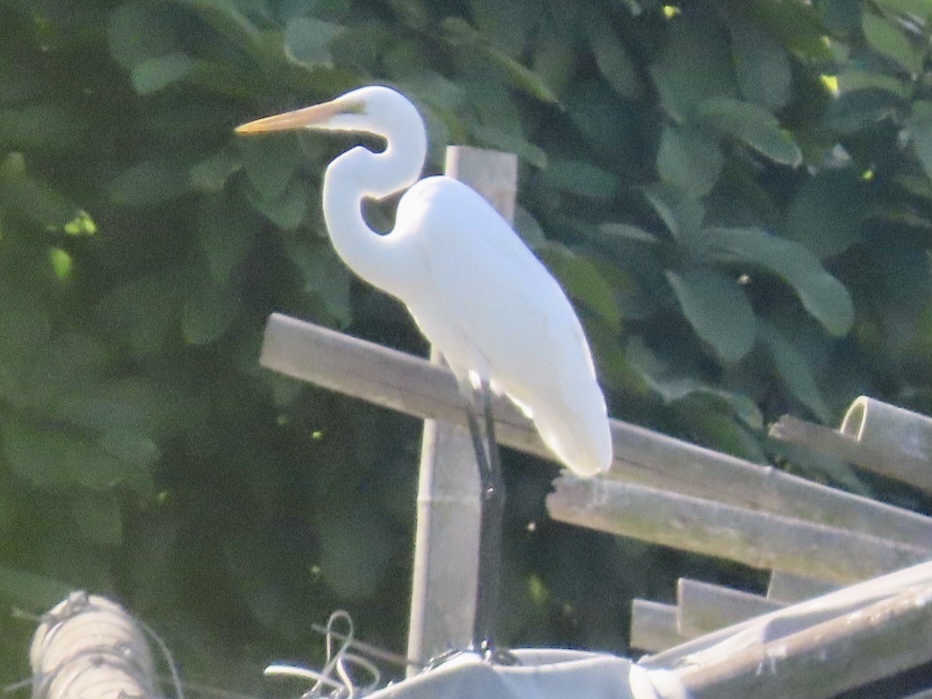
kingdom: Animalia
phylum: Chordata
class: Aves
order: Pelecaniformes
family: Ardeidae
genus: Ardea
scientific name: Ardea alba
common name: Great egret
